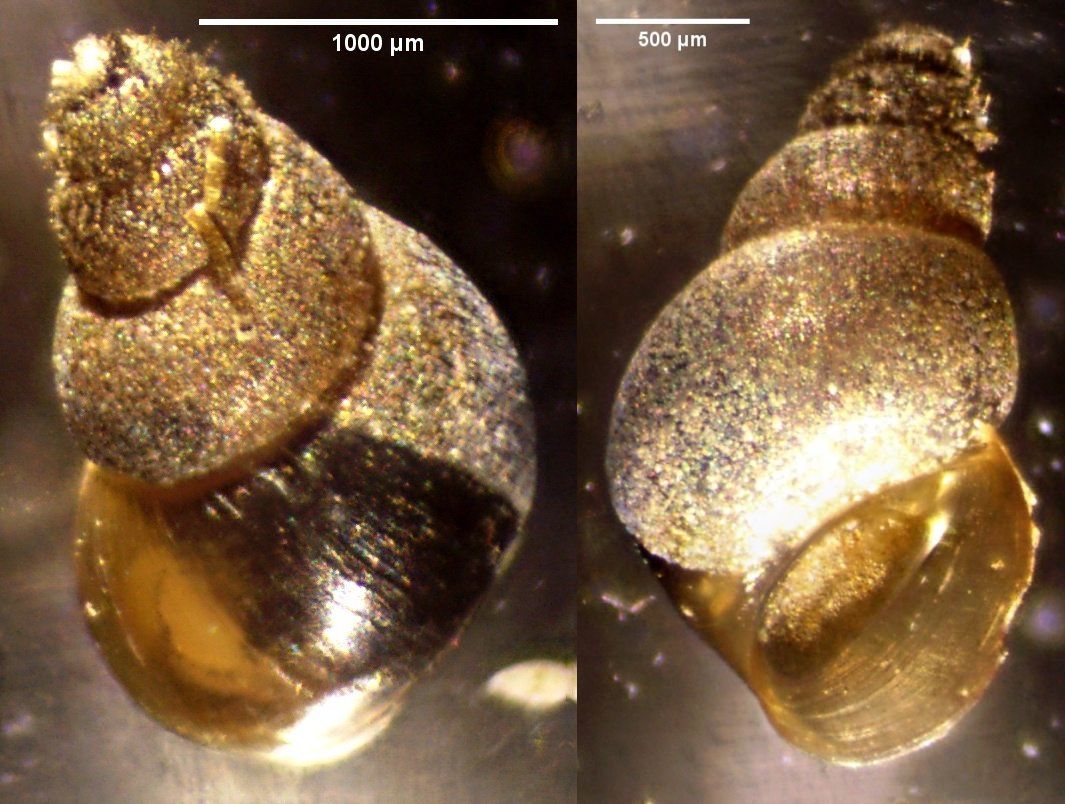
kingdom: Animalia
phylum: Mollusca
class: Gastropoda
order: Littorinimorpha
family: Tateidae
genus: Potamopyrgus
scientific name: Potamopyrgus antipodarum
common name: Jenkins' spire snail
